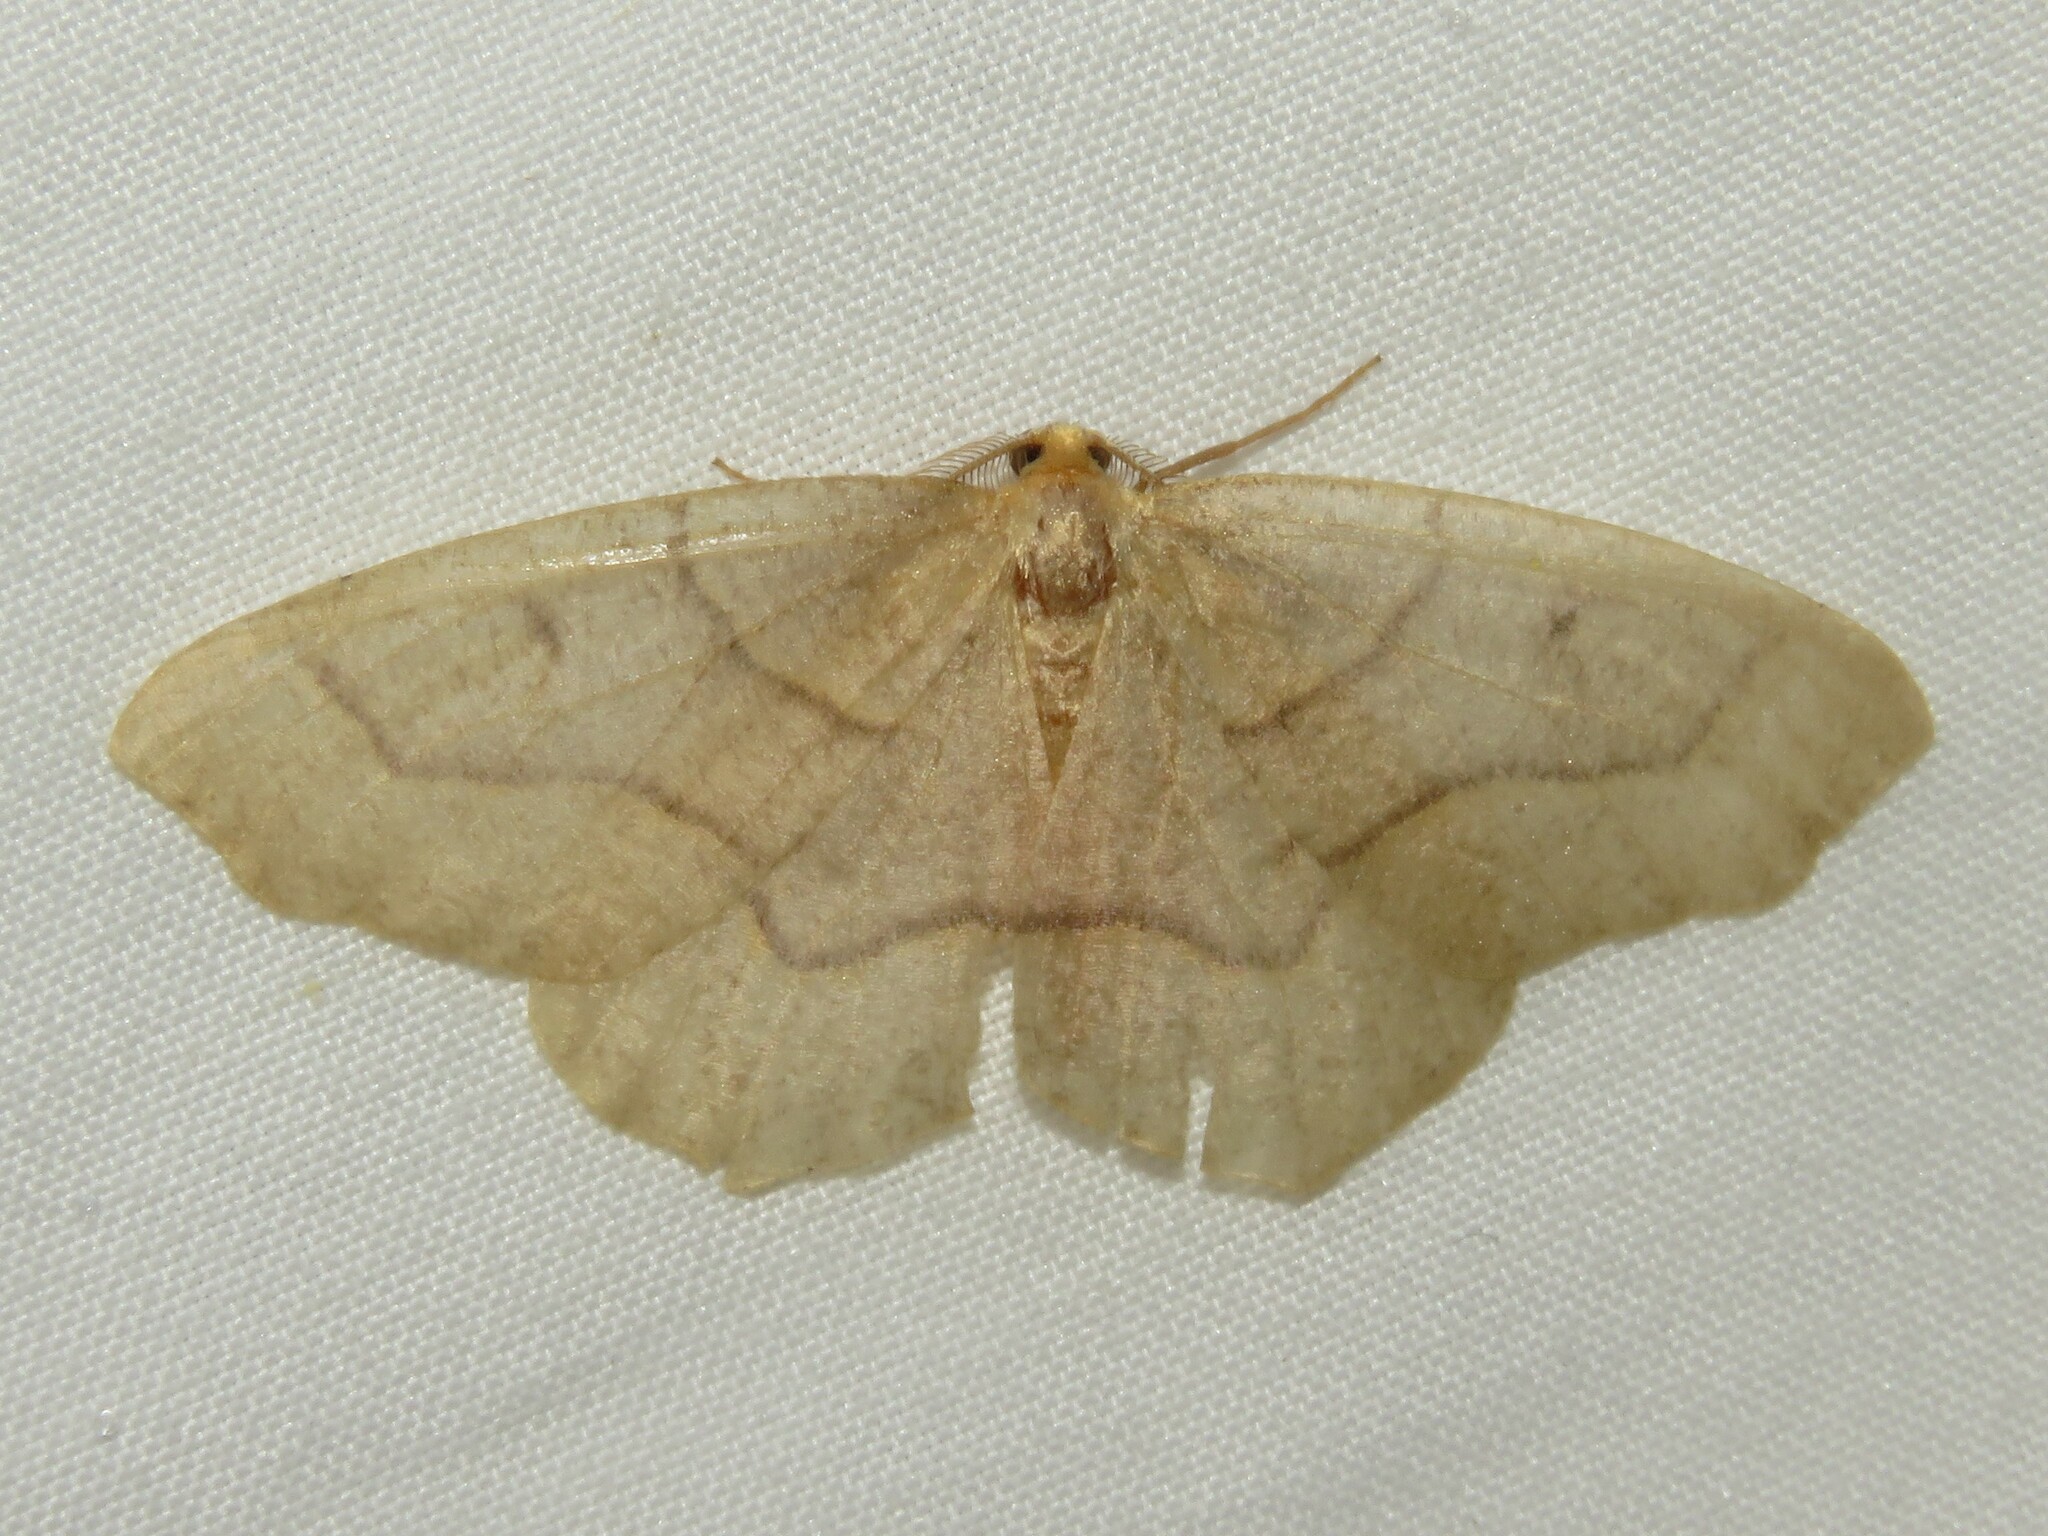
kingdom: Animalia
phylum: Arthropoda
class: Insecta
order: Lepidoptera
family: Geometridae
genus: Lambdina
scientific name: Lambdina fiscellaria
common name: Hemlock looper
